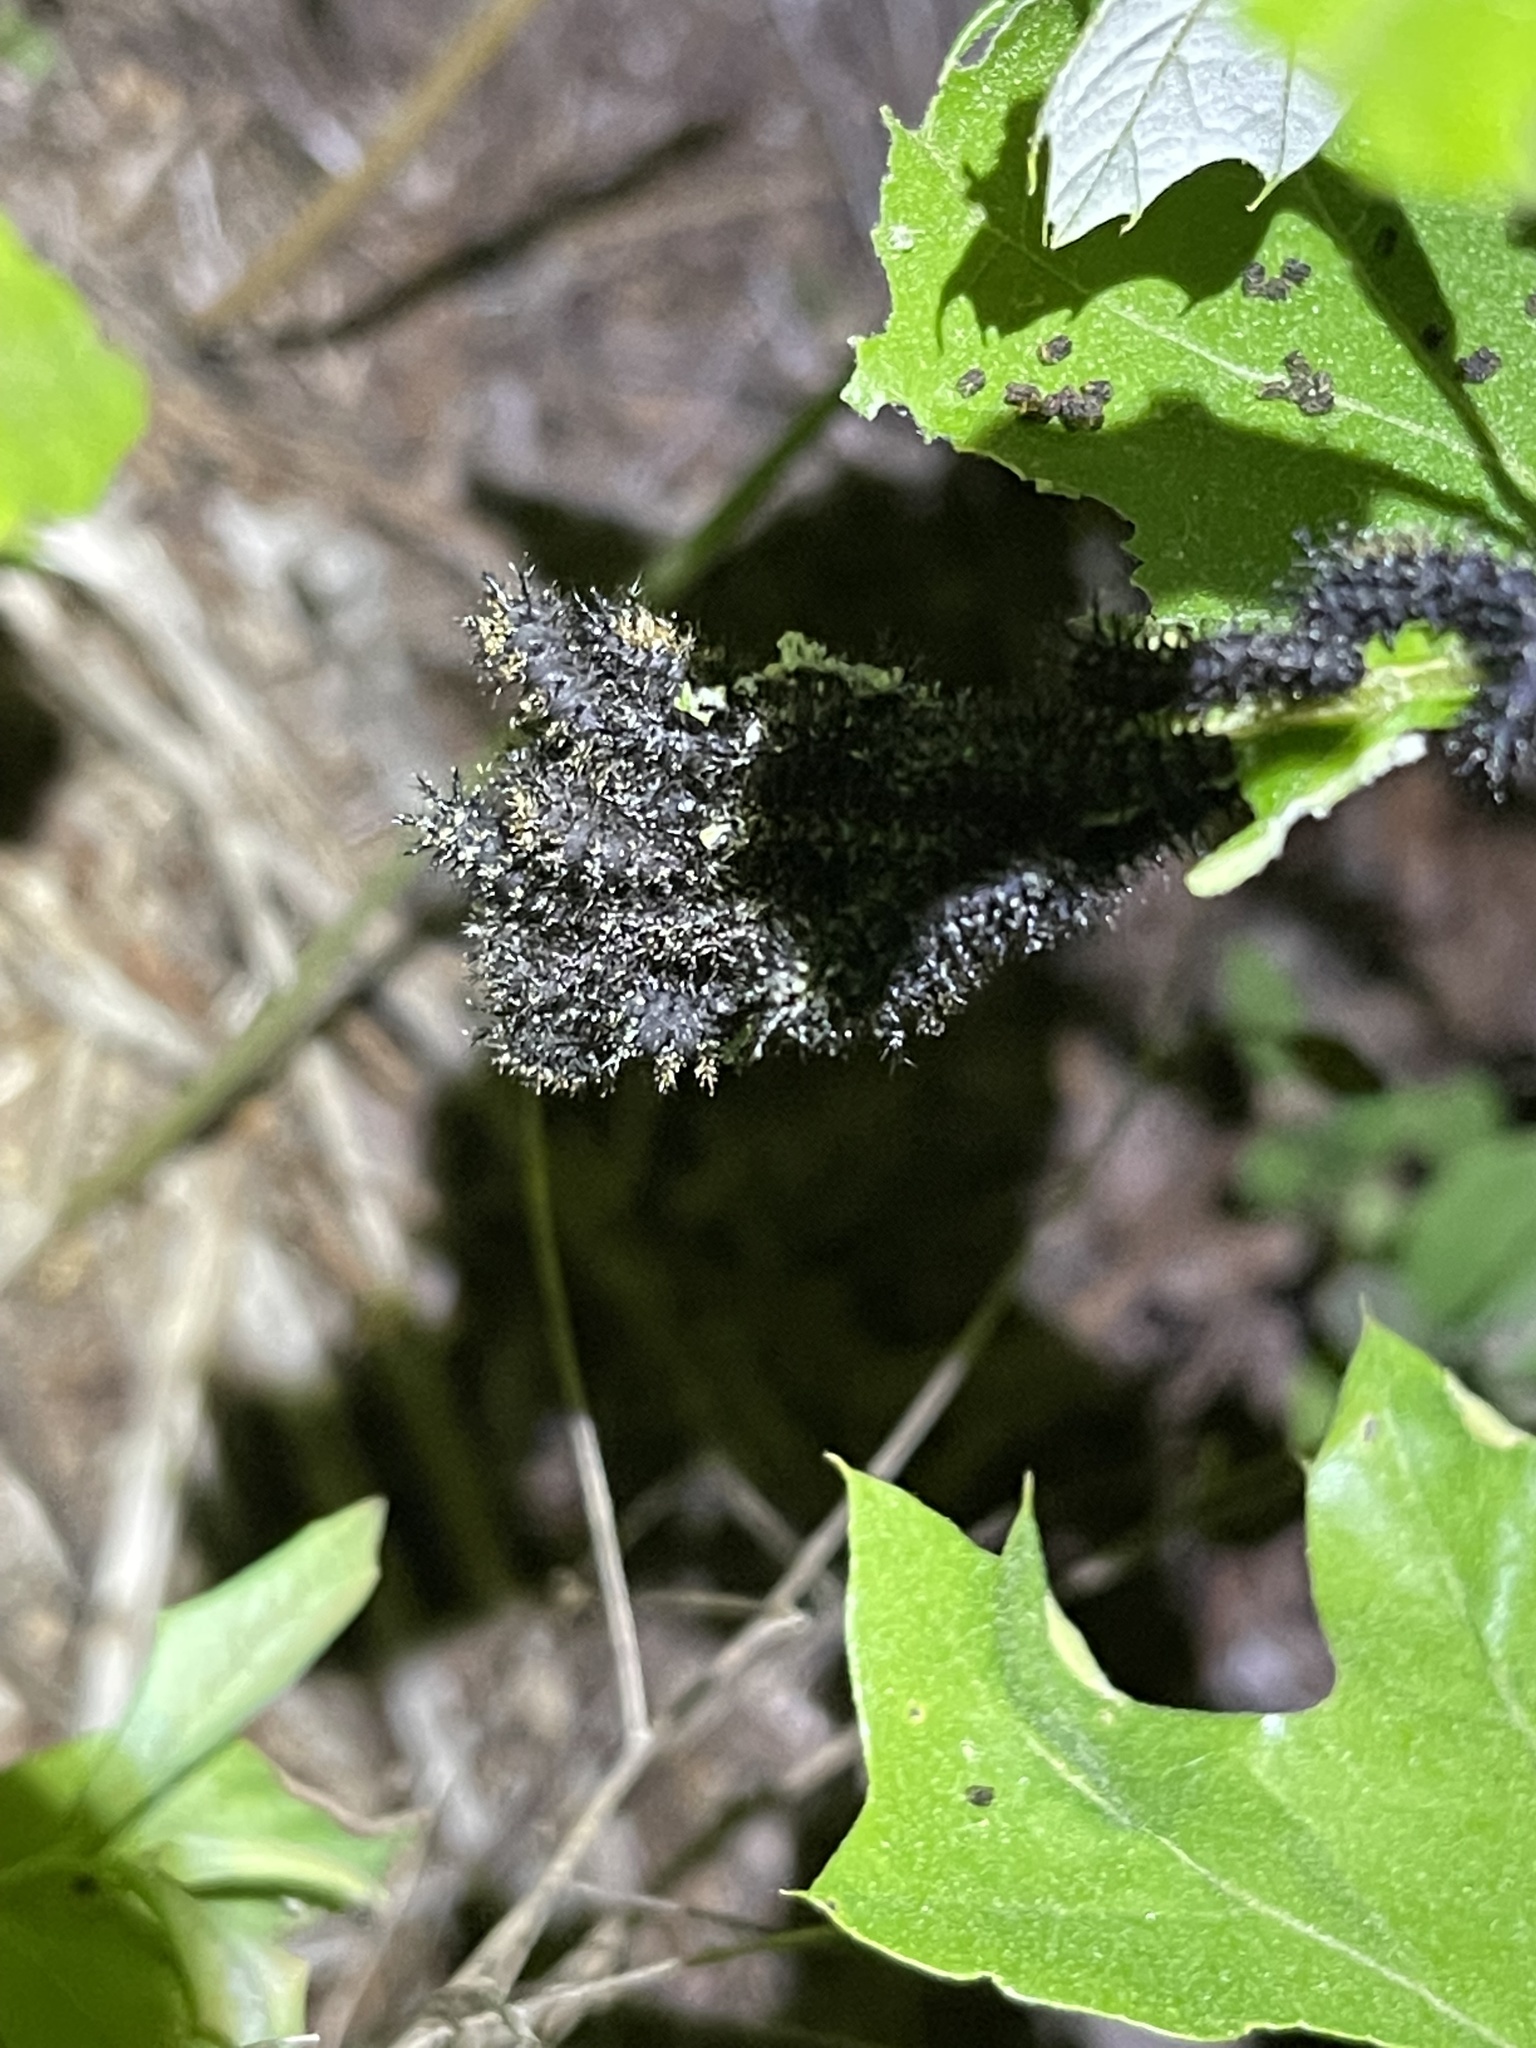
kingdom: Animalia
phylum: Arthropoda
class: Insecta
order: Lepidoptera
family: Saturniidae
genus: Hemileuca
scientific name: Hemileuca maia
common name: Eastern buckmoth
